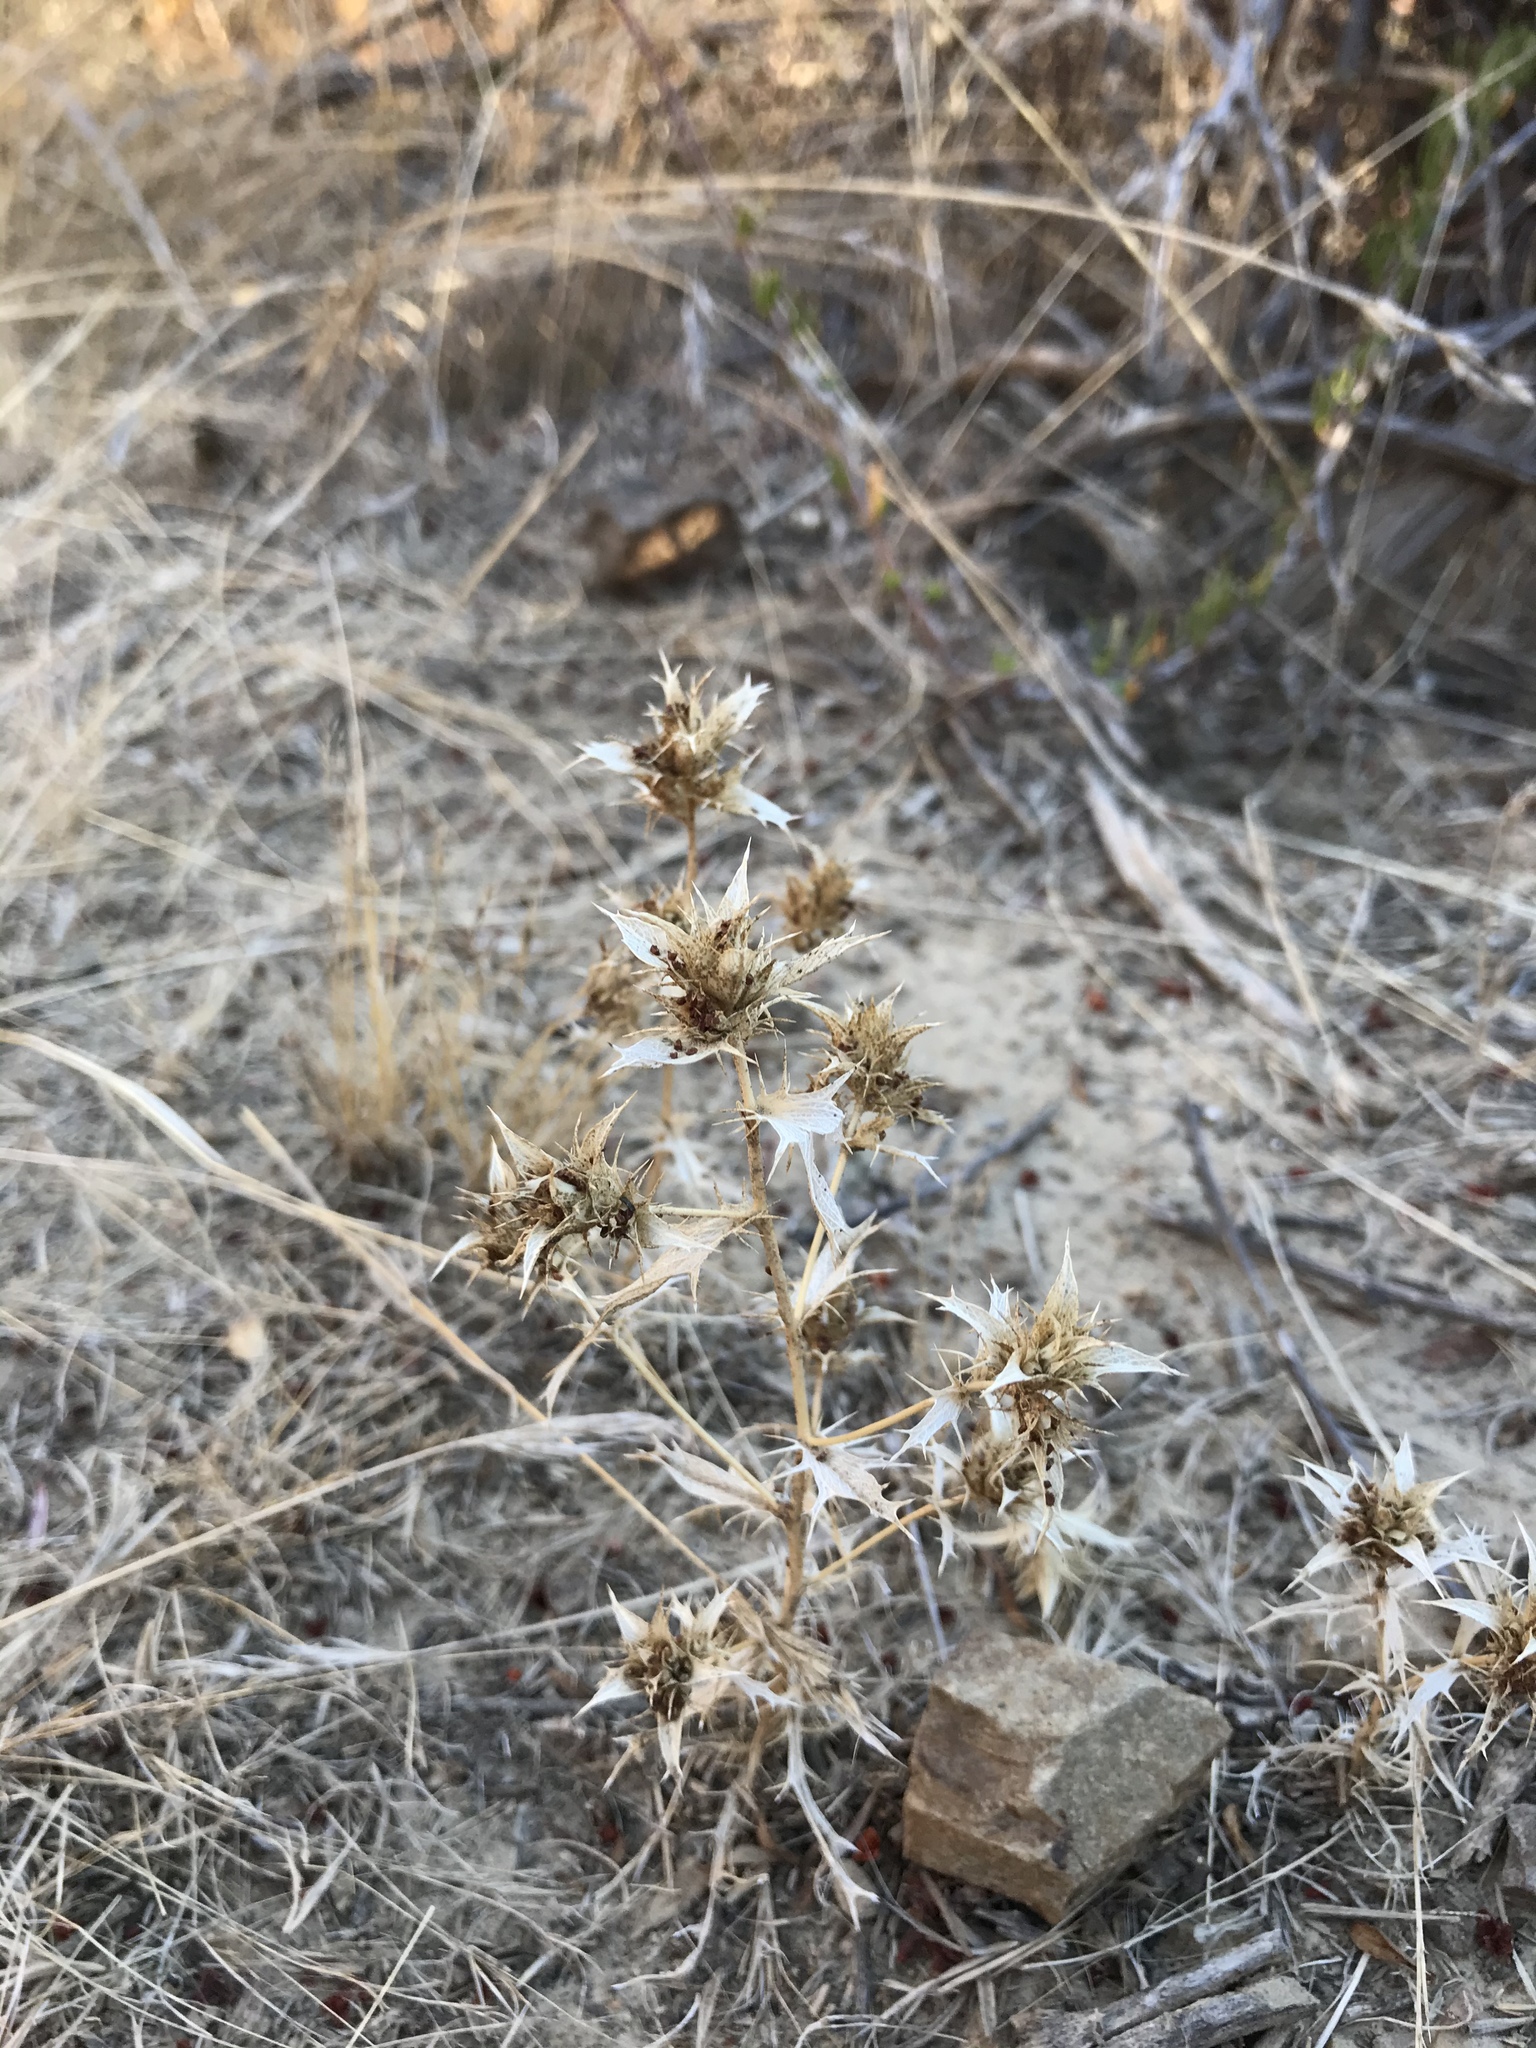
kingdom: Plantae
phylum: Tracheophyta
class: Magnoliopsida
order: Ericales
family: Polemoniaceae
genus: Navarretia
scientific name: Navarretia atractyloides
